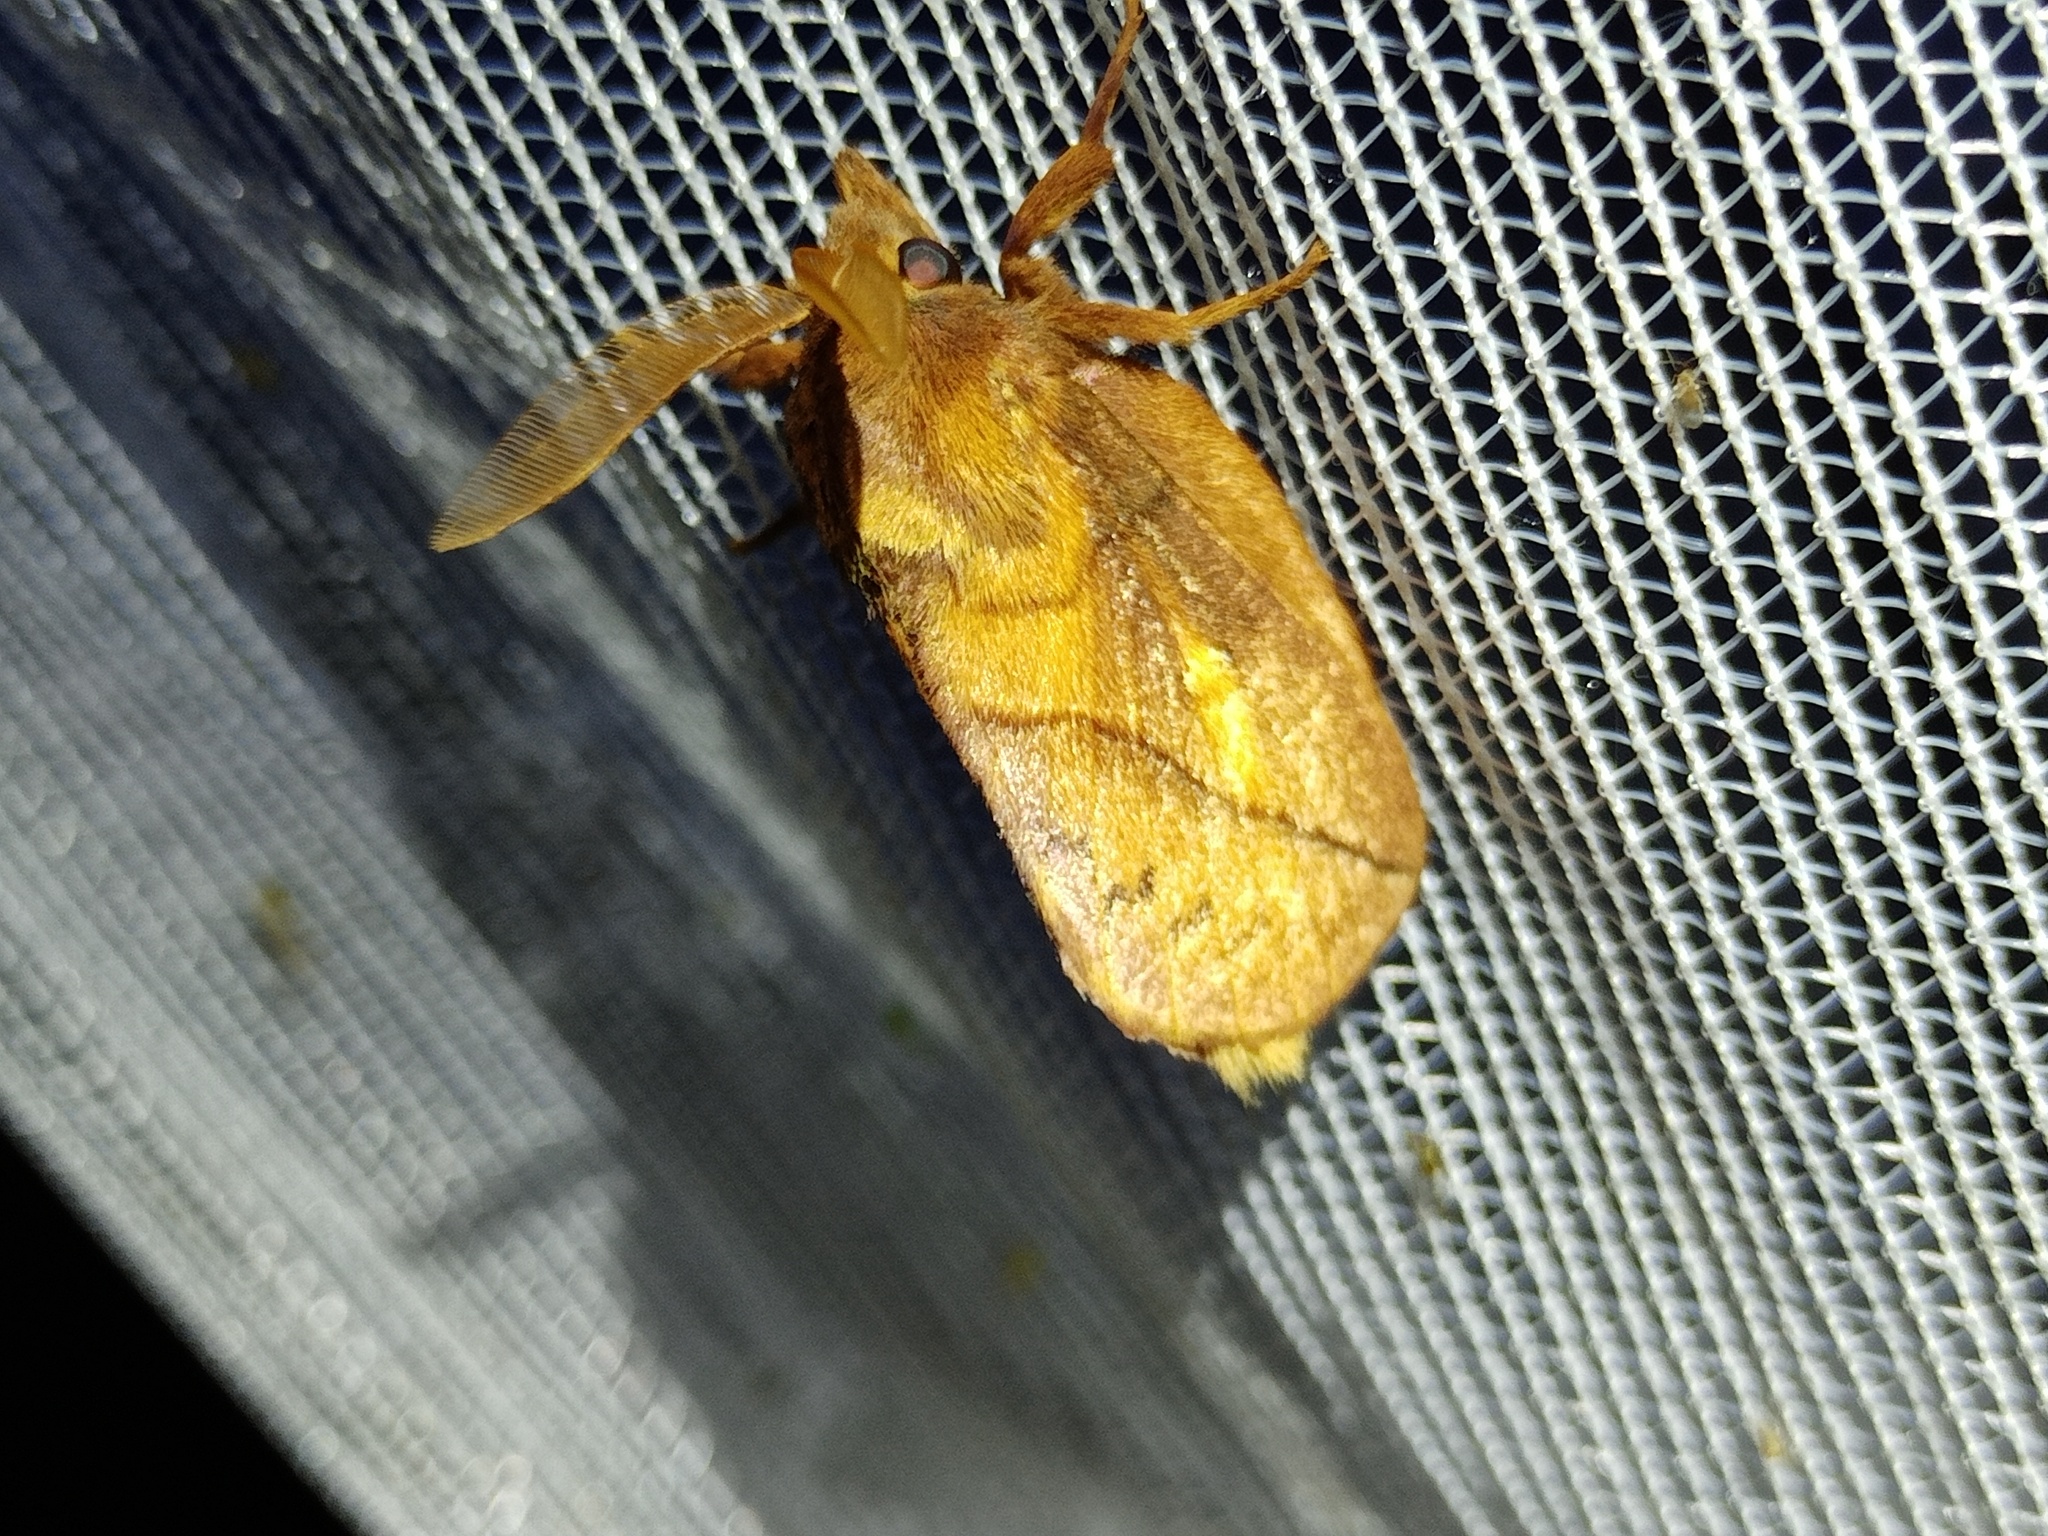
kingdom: Animalia
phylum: Arthropoda
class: Insecta
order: Lepidoptera
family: Lasiocampidae
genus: Euthrix
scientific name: Euthrix potatoria
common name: Drinker
